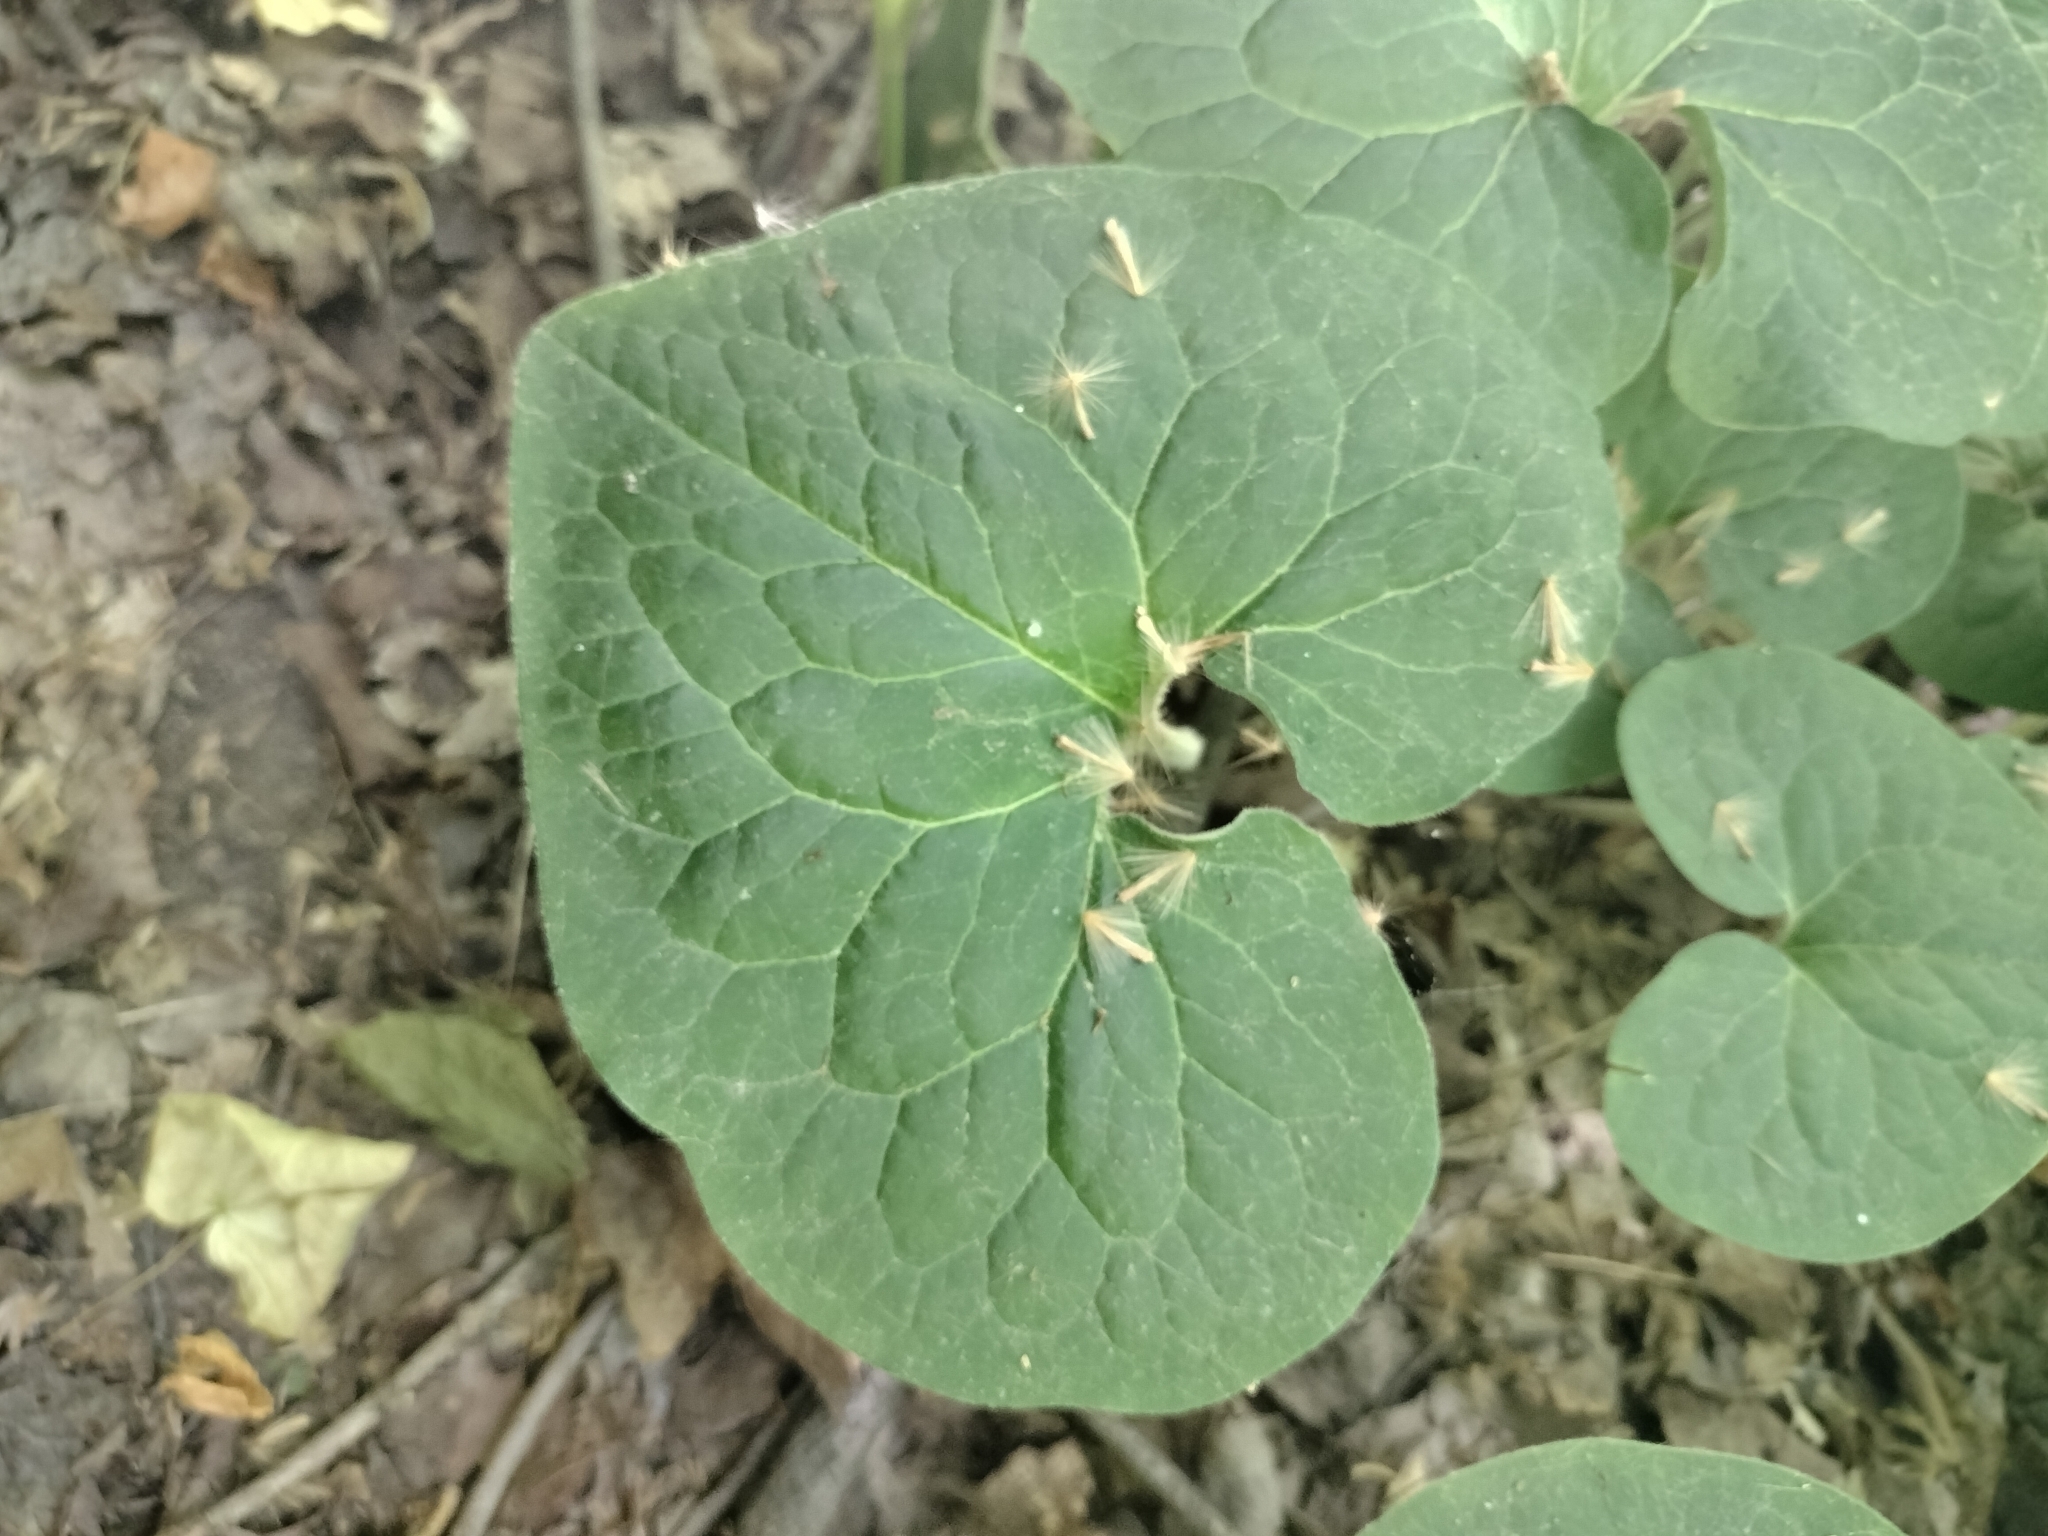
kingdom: Plantae
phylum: Tracheophyta
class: Magnoliopsida
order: Piperales
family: Aristolochiaceae
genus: Asarum
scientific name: Asarum canadense
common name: Wild ginger
